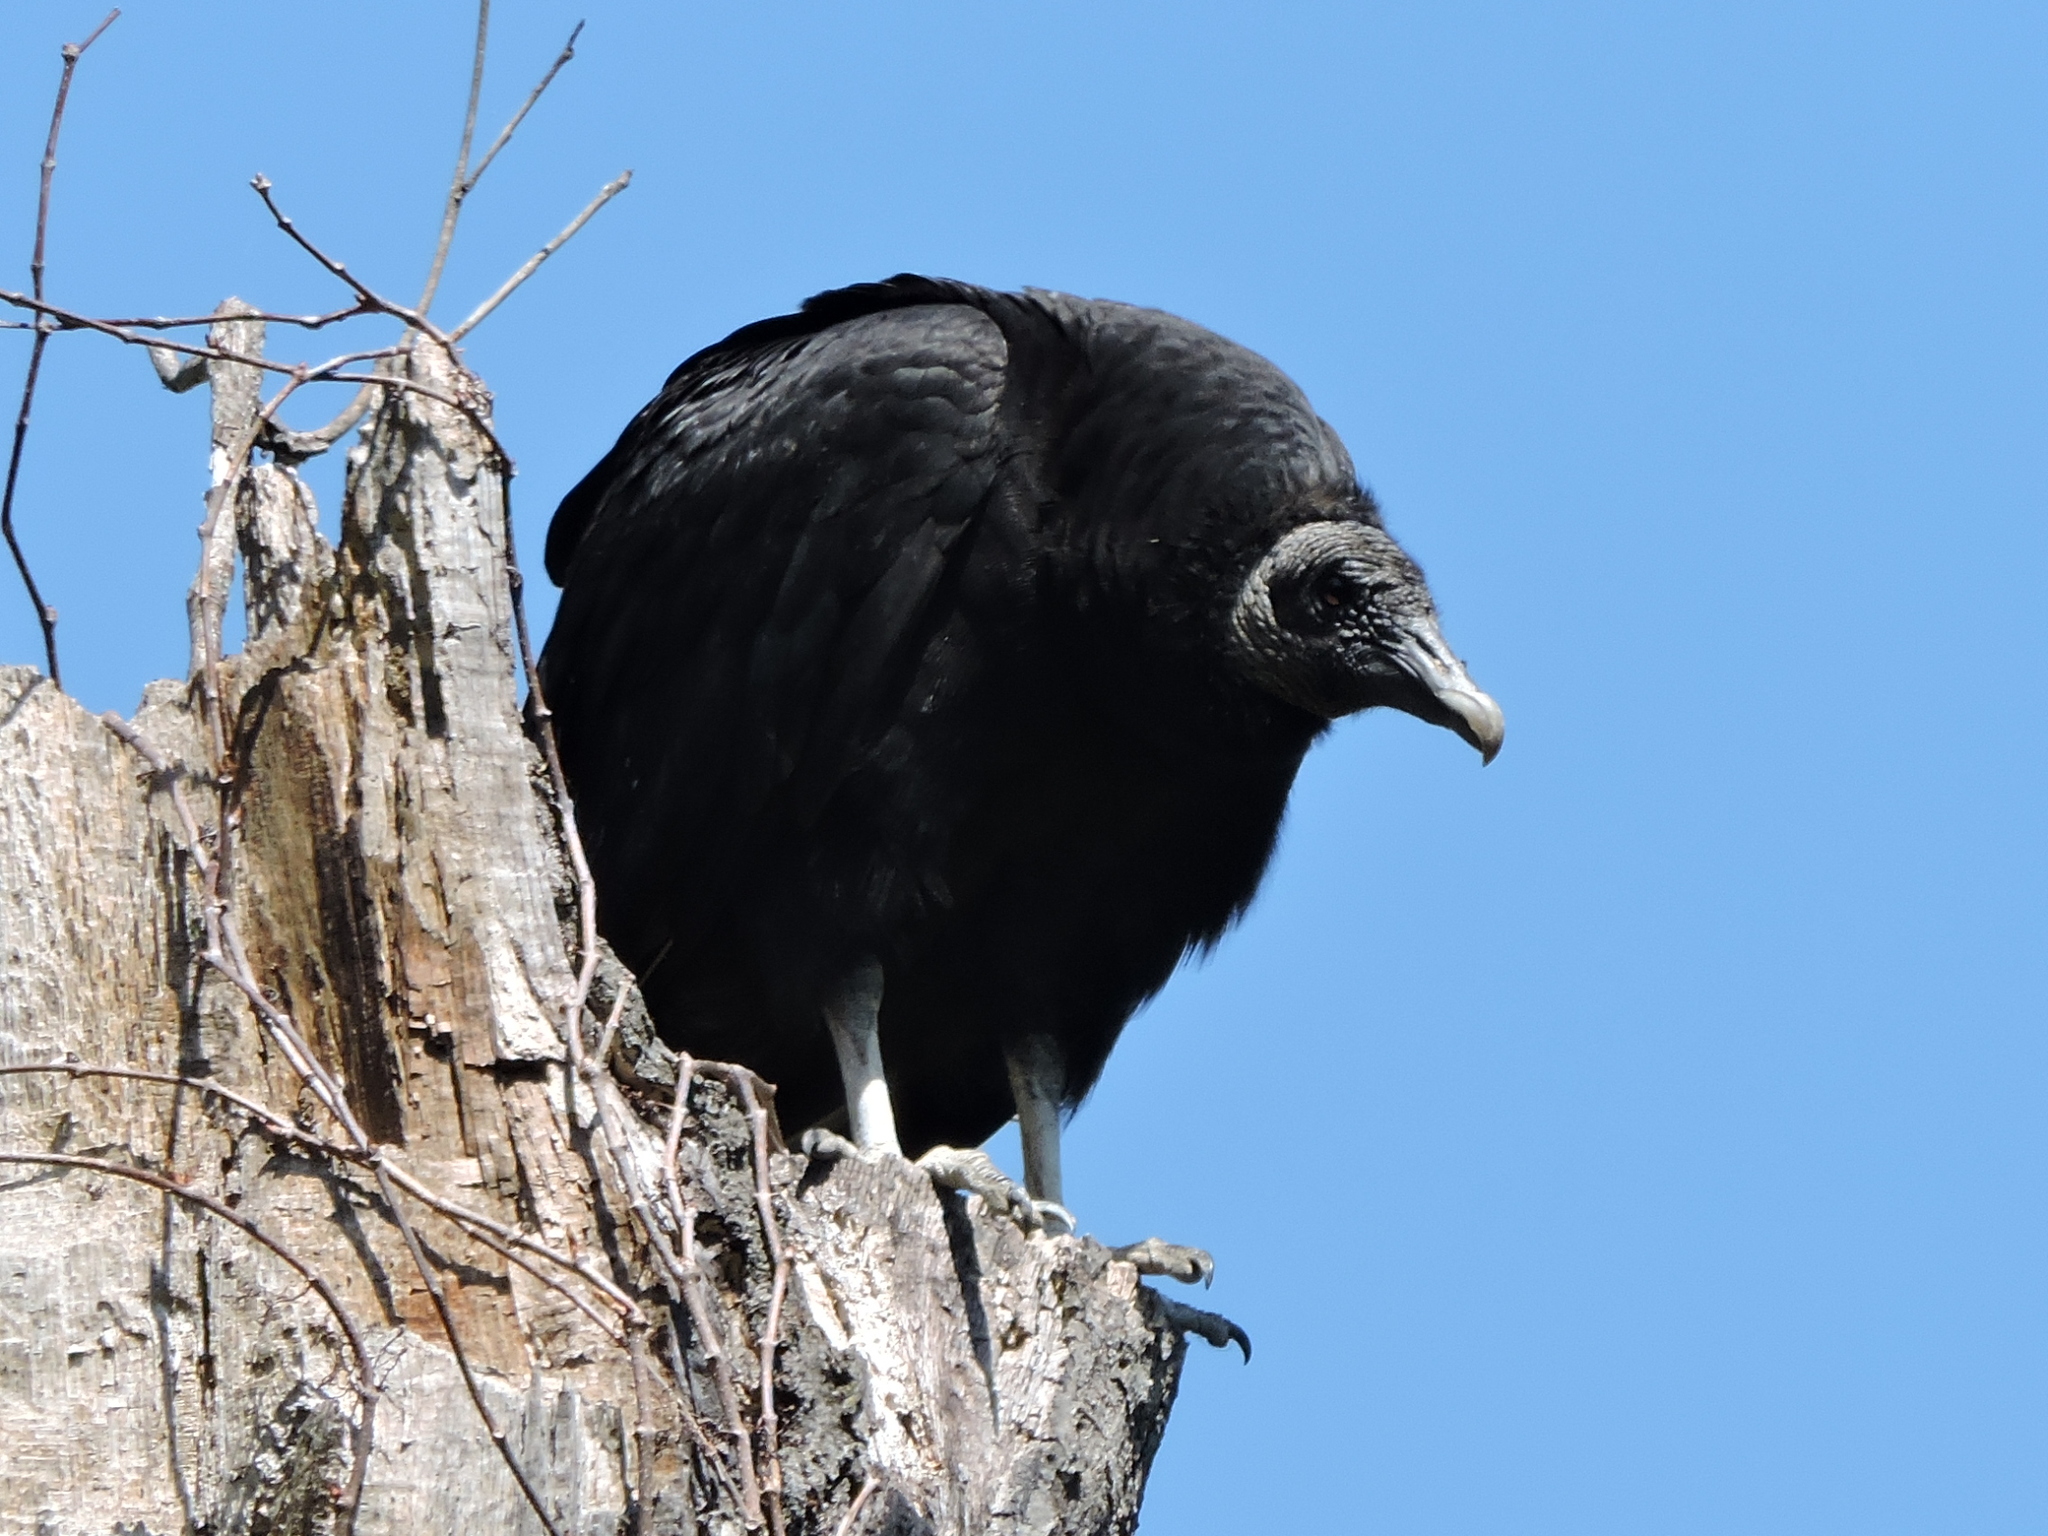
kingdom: Animalia
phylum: Chordata
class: Aves
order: Accipitriformes
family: Cathartidae
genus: Coragyps
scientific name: Coragyps atratus
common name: Black vulture
